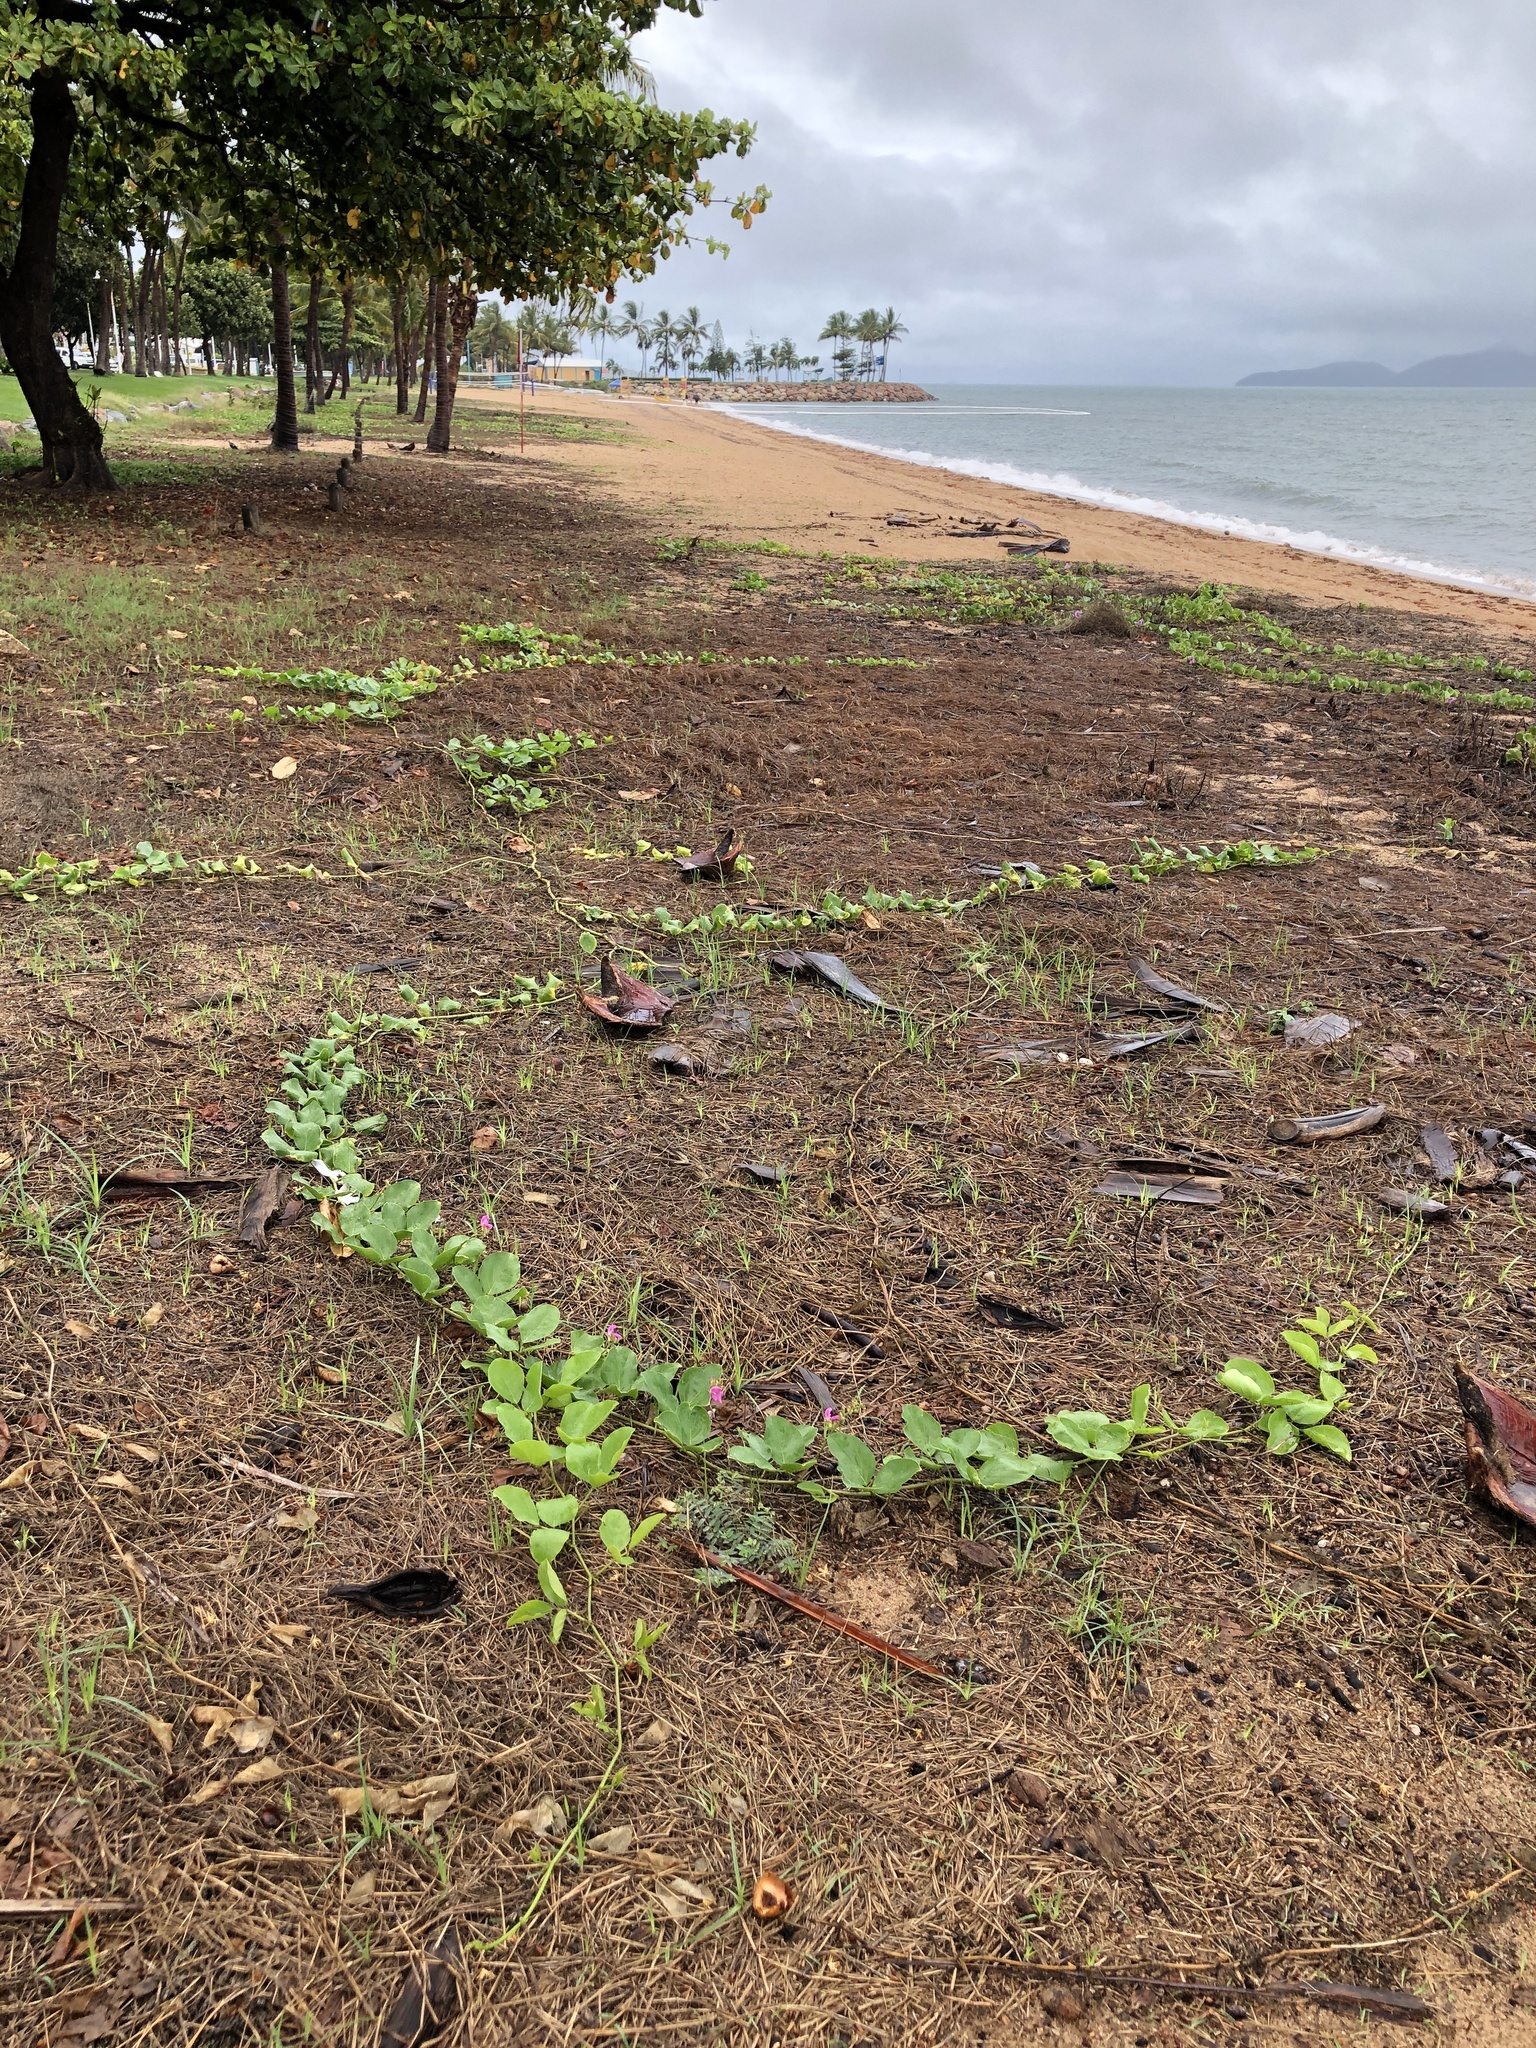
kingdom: Plantae
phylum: Tracheophyta
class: Magnoliopsida
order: Fabales
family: Fabaceae
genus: Canavalia
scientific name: Canavalia rosea
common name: Beach-bean
